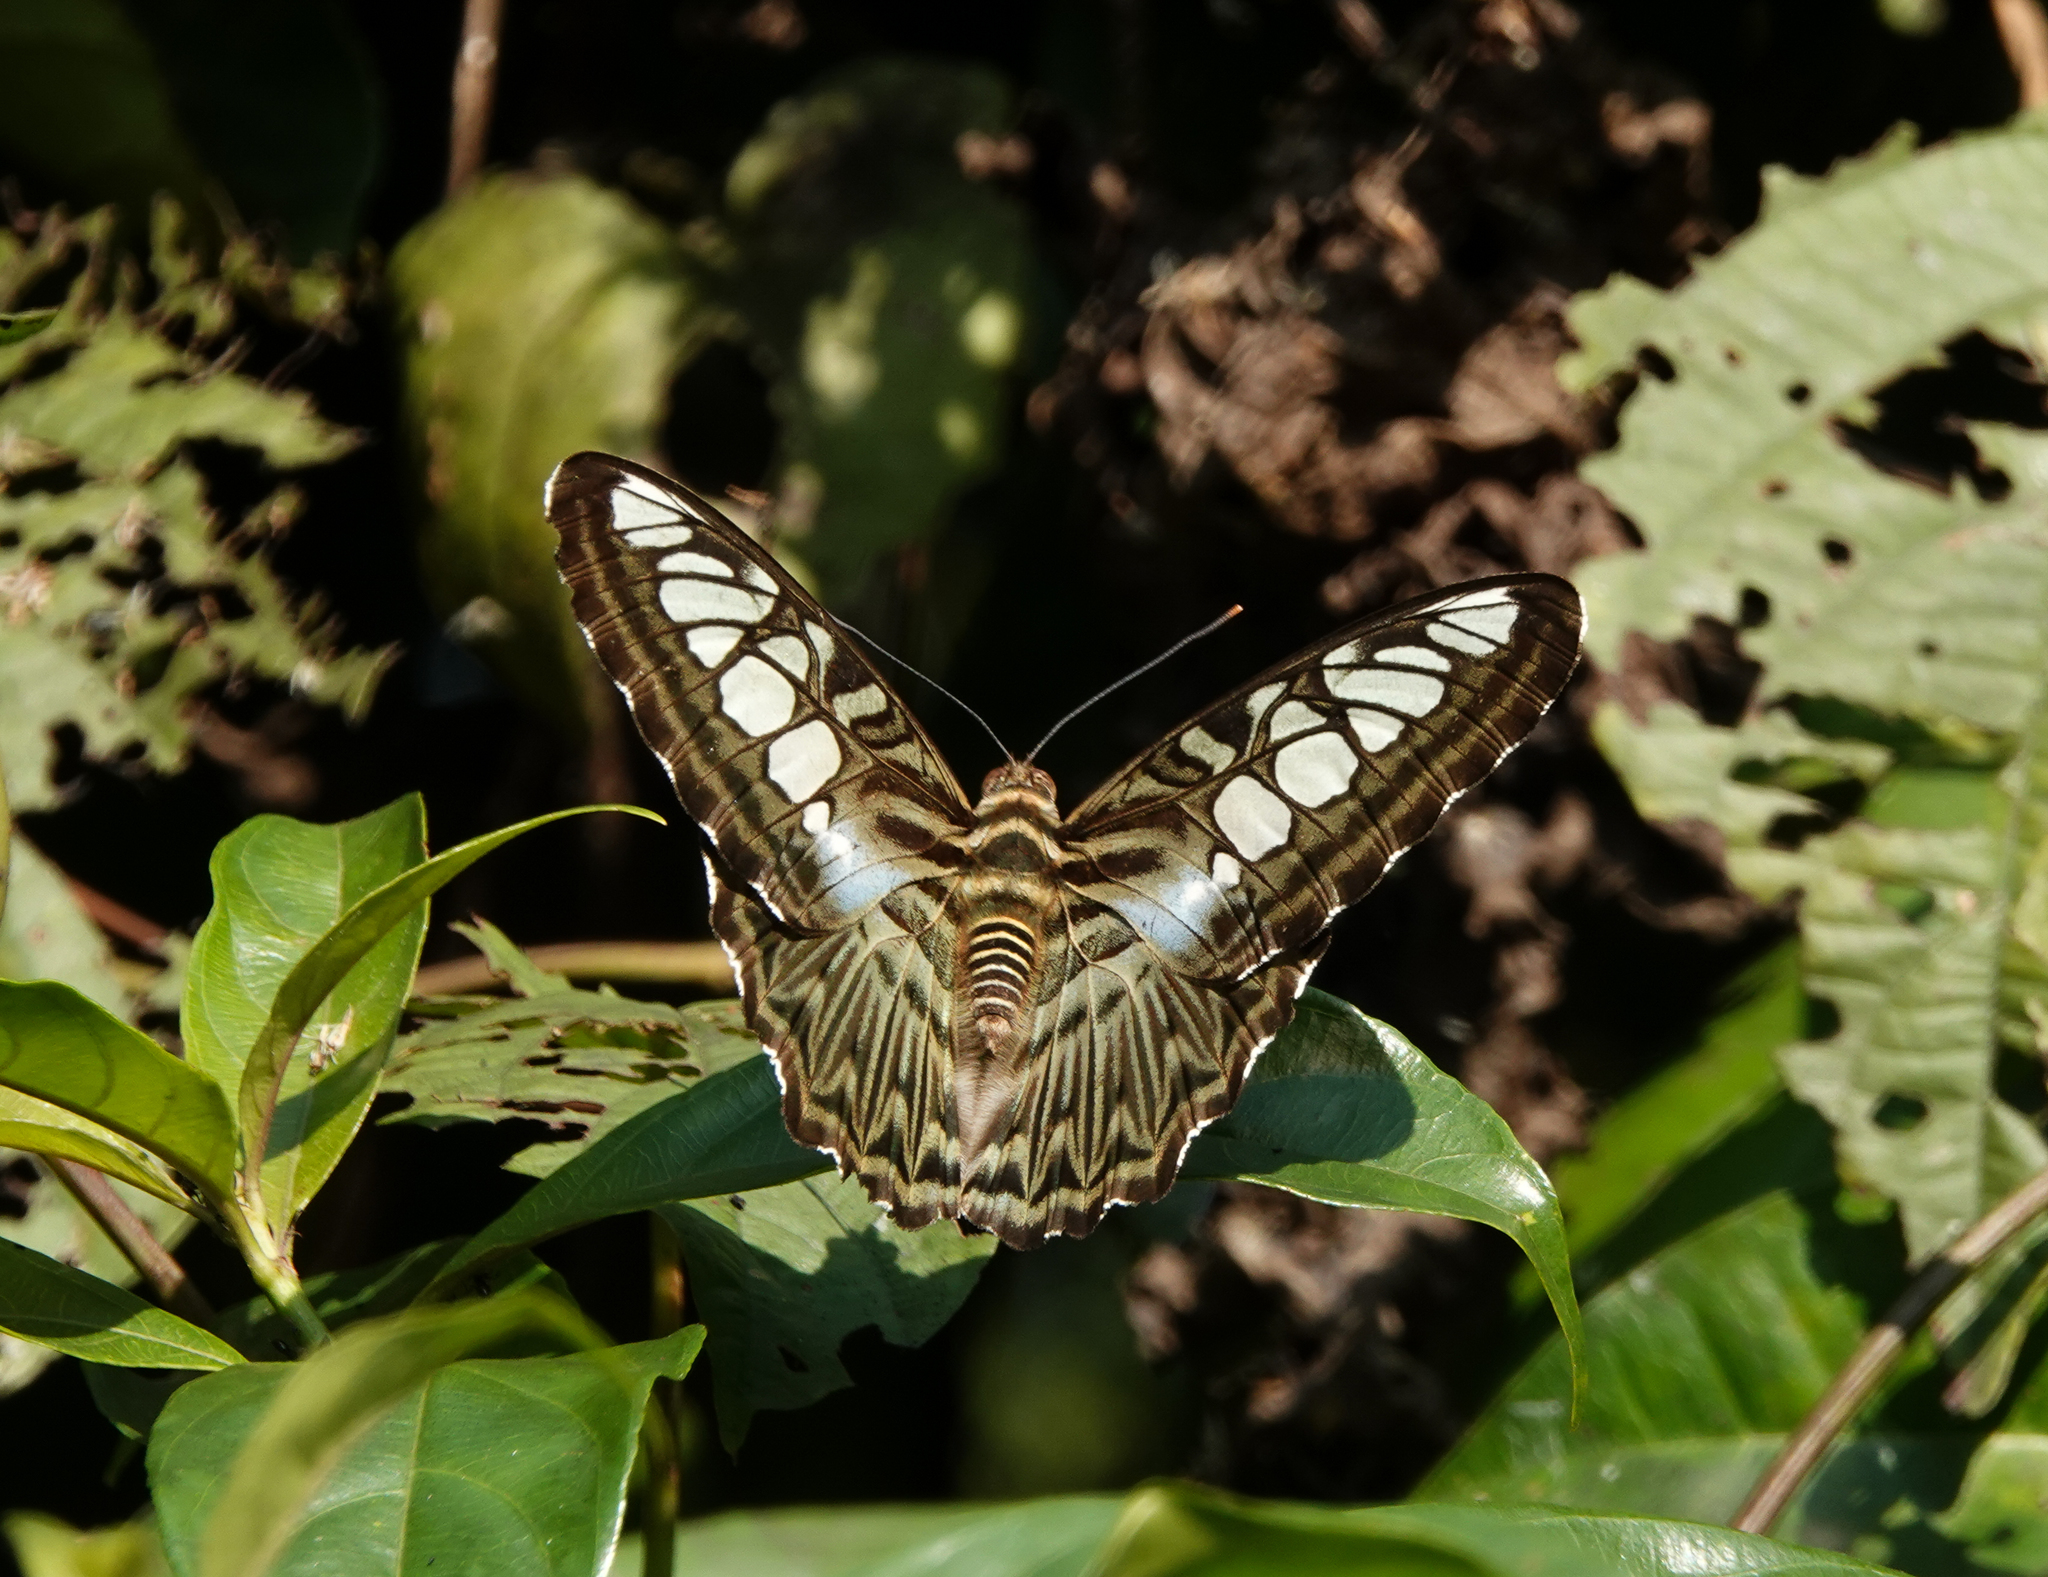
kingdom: Animalia
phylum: Arthropoda
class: Insecta
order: Lepidoptera
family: Nymphalidae
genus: Kallima
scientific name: Kallima sylvia
